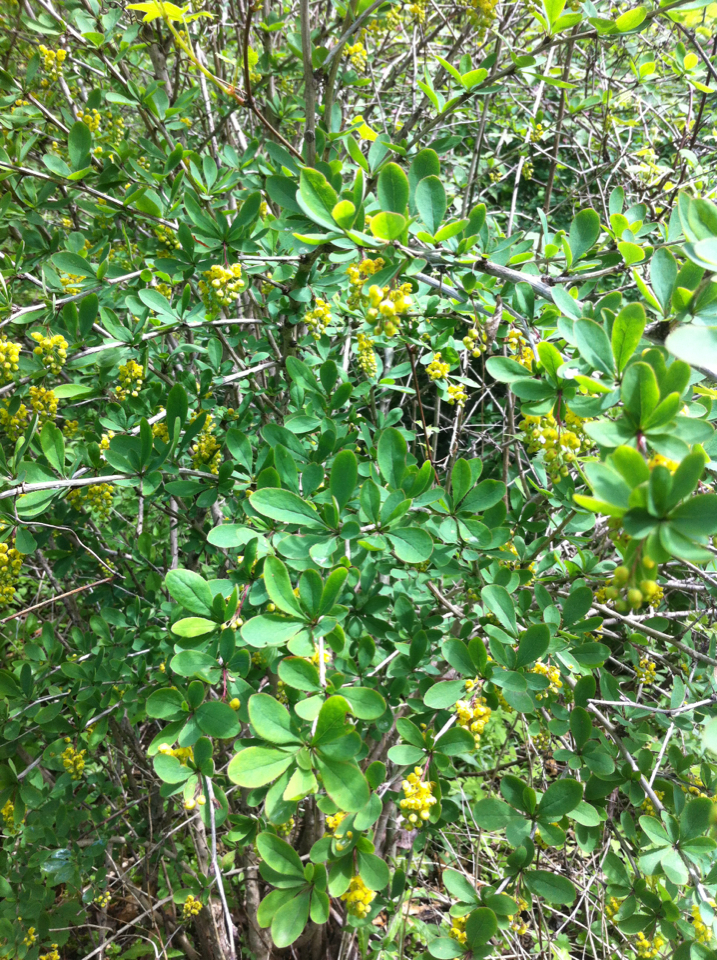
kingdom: Plantae
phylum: Tracheophyta
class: Magnoliopsida
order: Ranunculales
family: Berberidaceae
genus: Berberis
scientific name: Berberis thunbergii
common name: Japanese barberry
